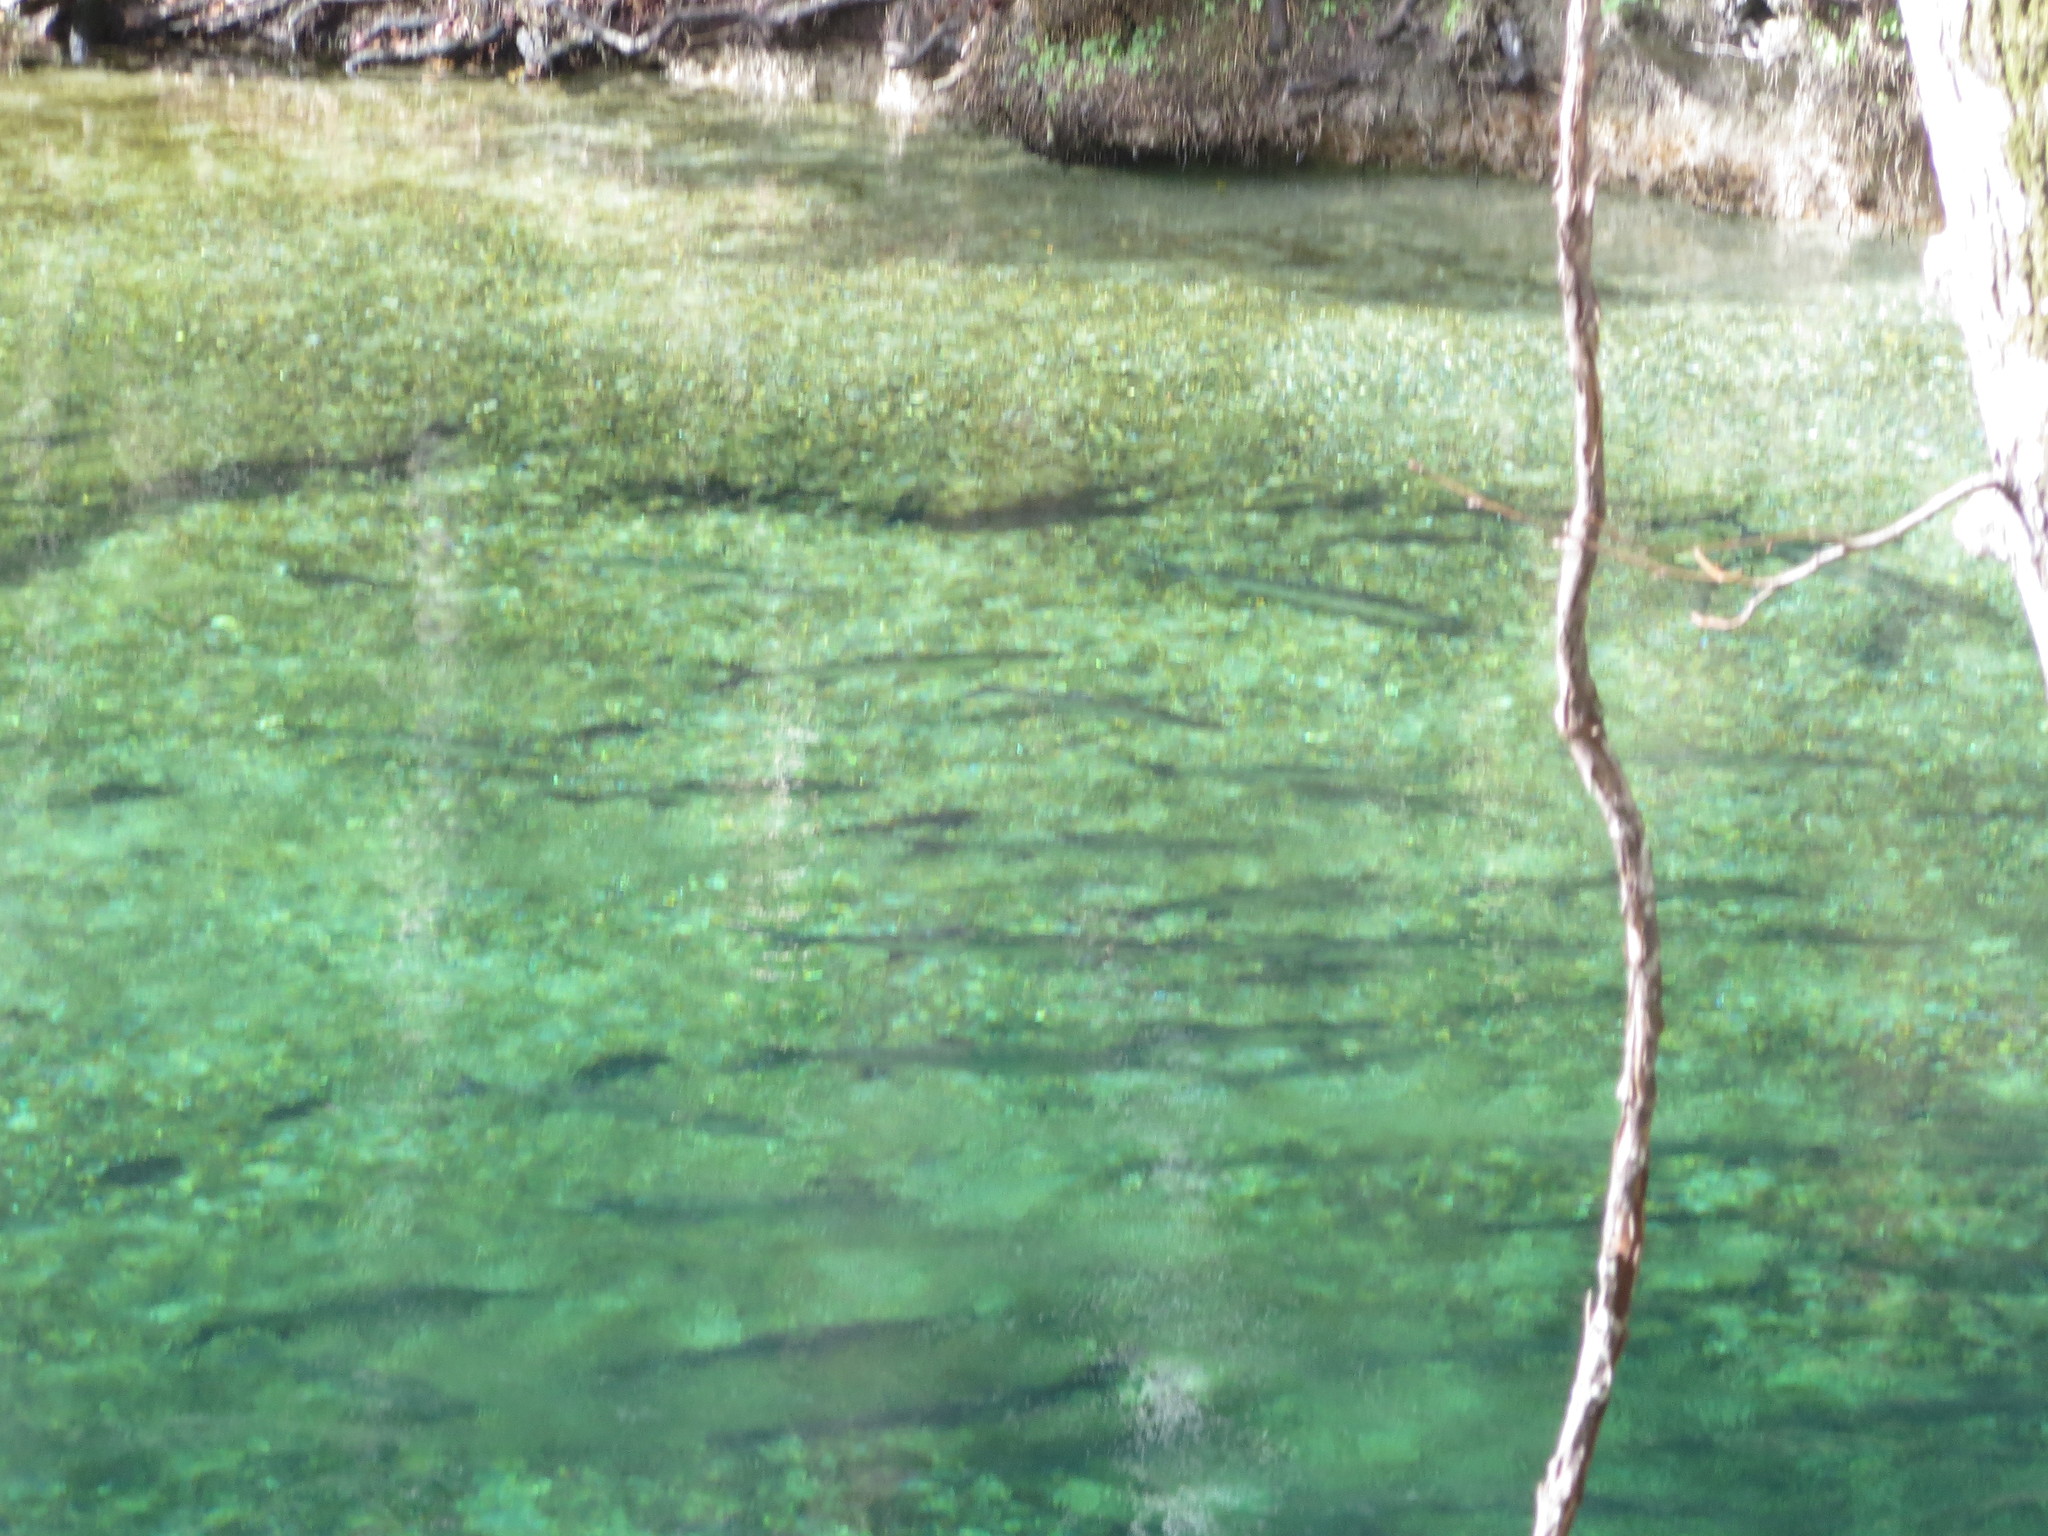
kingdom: Animalia
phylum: Chordata
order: Elopiformes
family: Megalopidae
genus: Megalops
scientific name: Megalops atlanticus
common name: Tarpon
